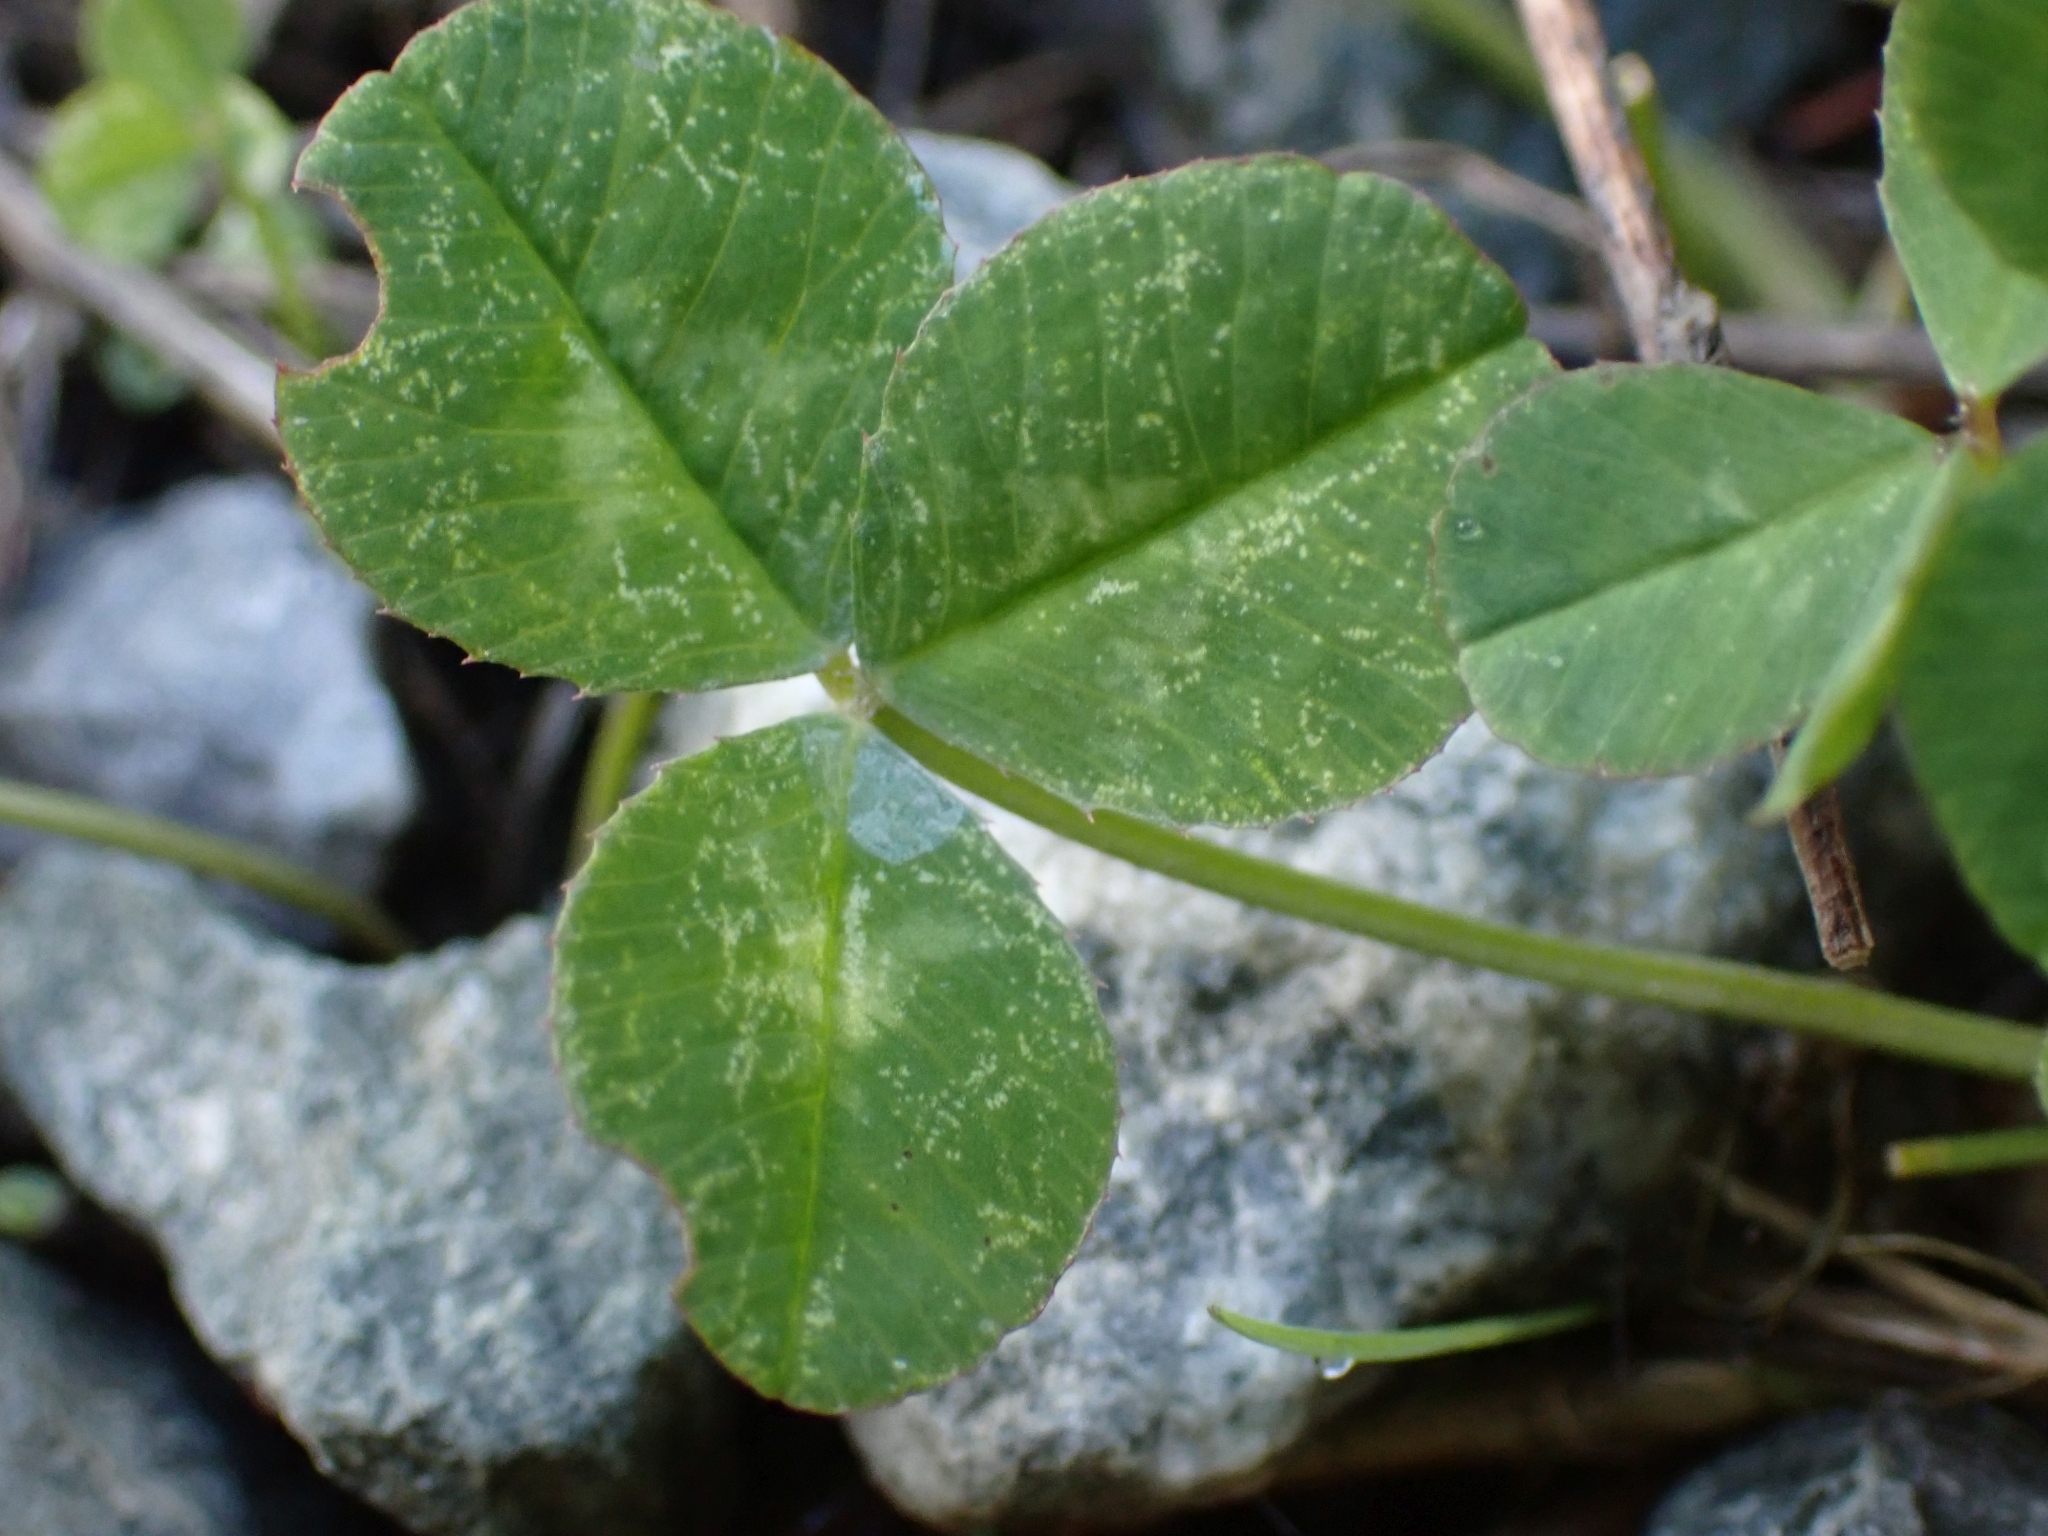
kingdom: Plantae
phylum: Tracheophyta
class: Magnoliopsida
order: Fabales
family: Fabaceae
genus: Trifolium
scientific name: Trifolium repens
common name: White clover
